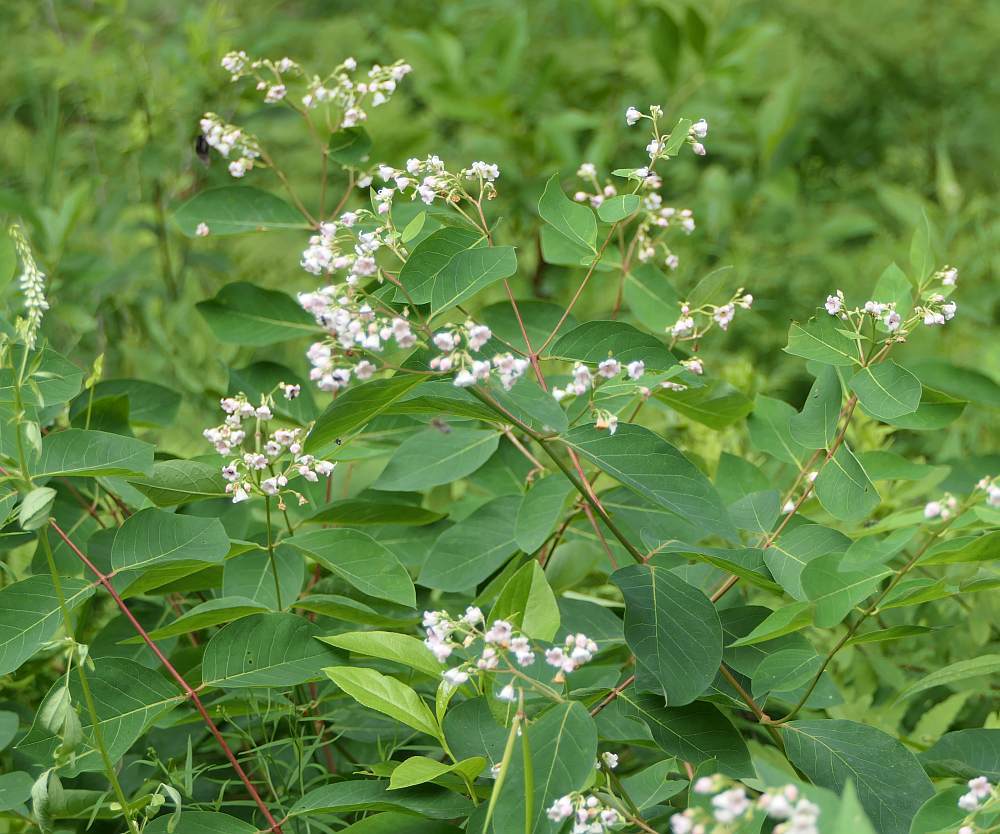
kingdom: Plantae
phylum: Tracheophyta
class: Magnoliopsida
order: Gentianales
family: Apocynaceae
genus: Apocynum
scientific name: Apocynum androsaemifolium
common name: Spreading dogbane
